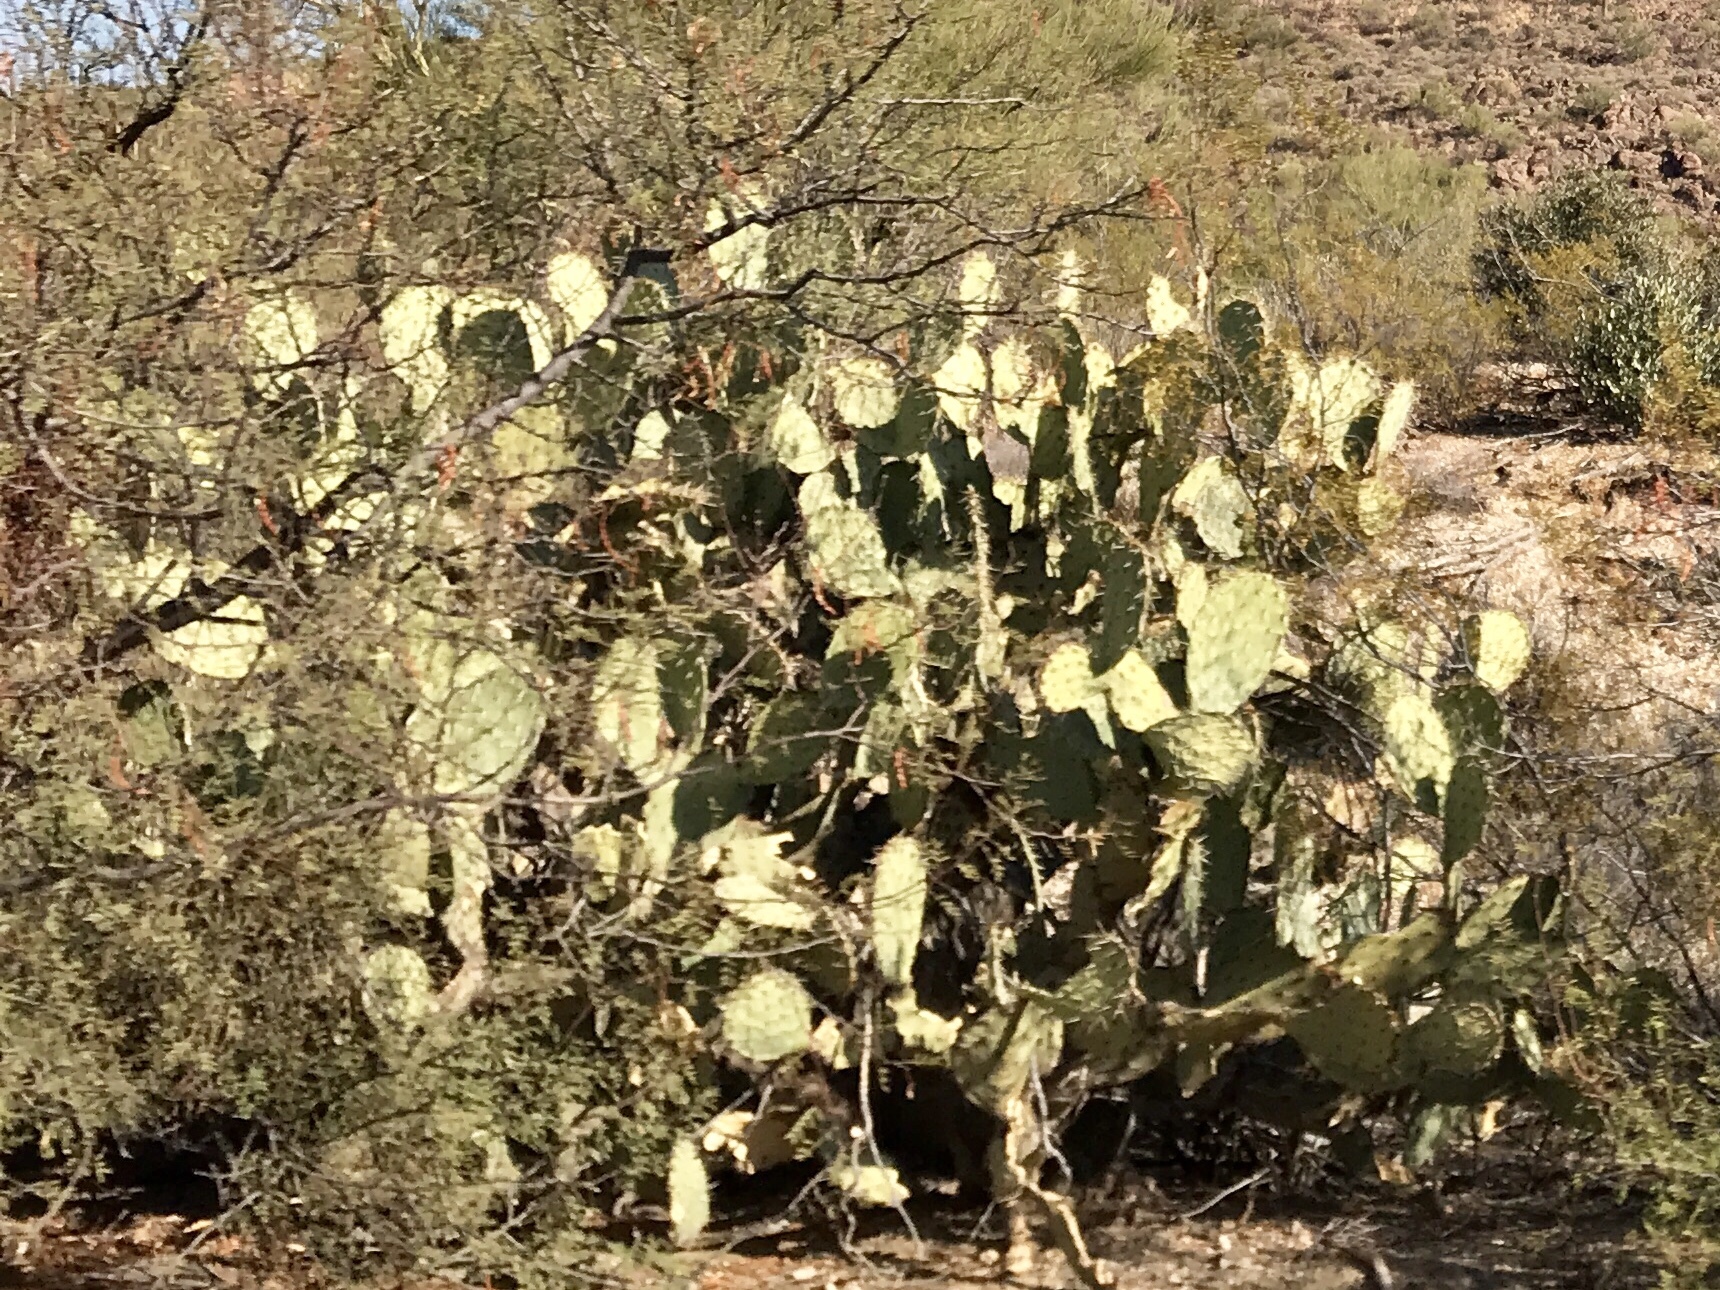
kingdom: Plantae
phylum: Tracheophyta
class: Magnoliopsida
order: Caryophyllales
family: Cactaceae
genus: Opuntia
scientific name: Opuntia engelmannii
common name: Cactus-apple
